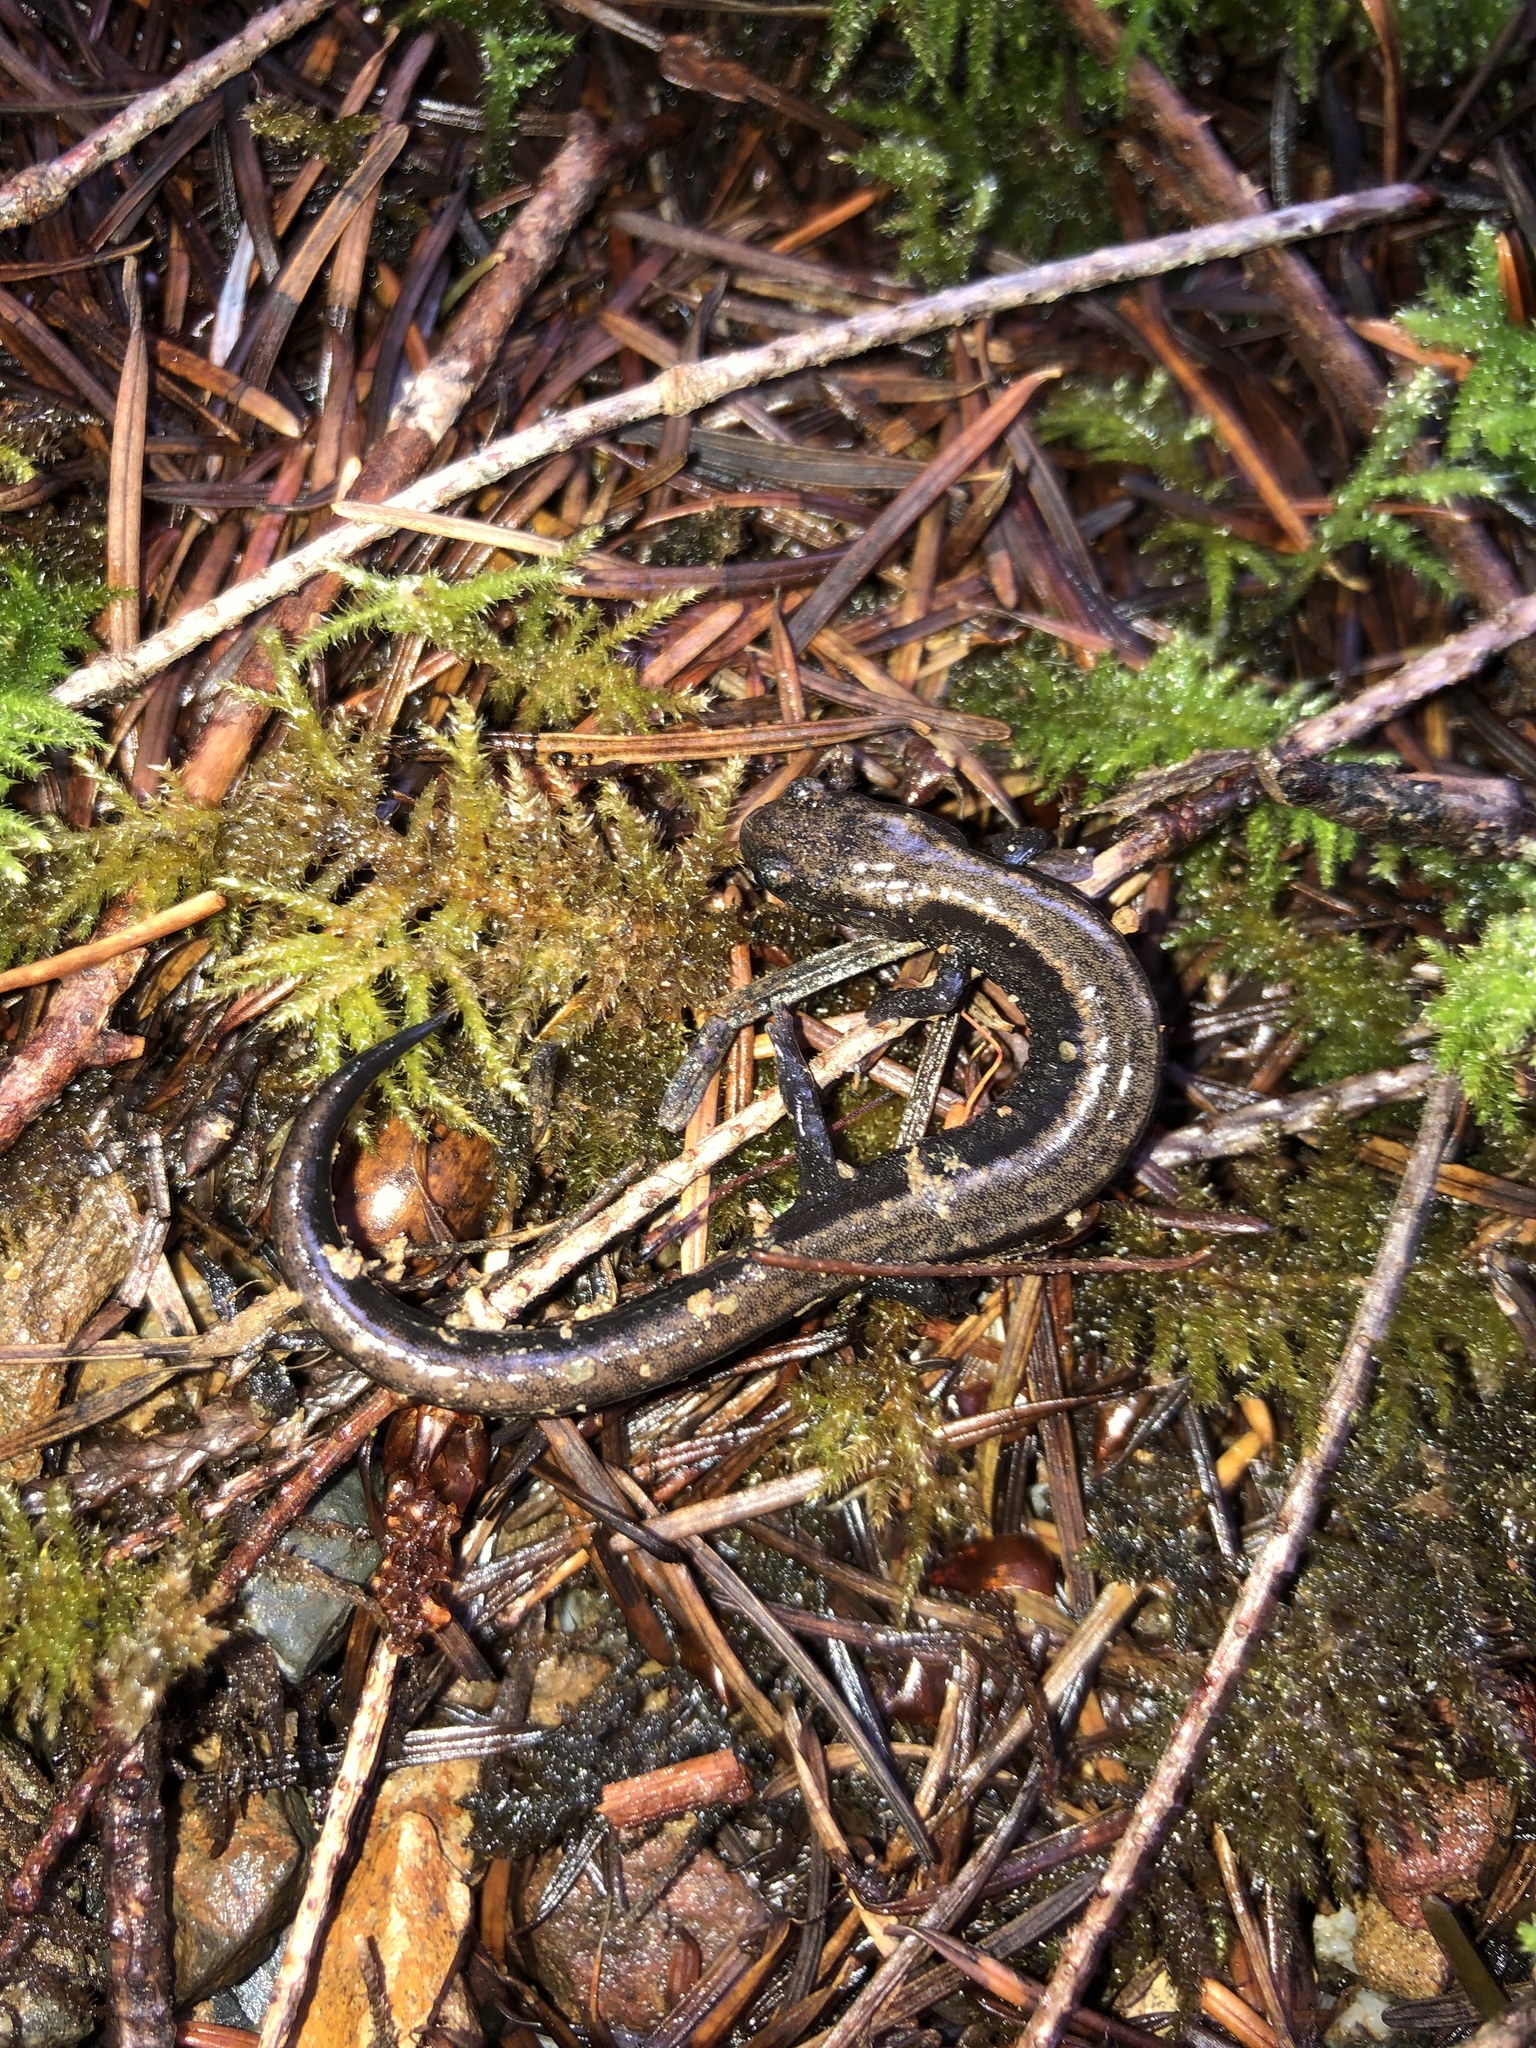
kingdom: Animalia
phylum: Chordata
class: Amphibia
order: Caudata
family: Plethodontidae
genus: Plethodon
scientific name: Plethodon elongatus
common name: Del norte salamander
